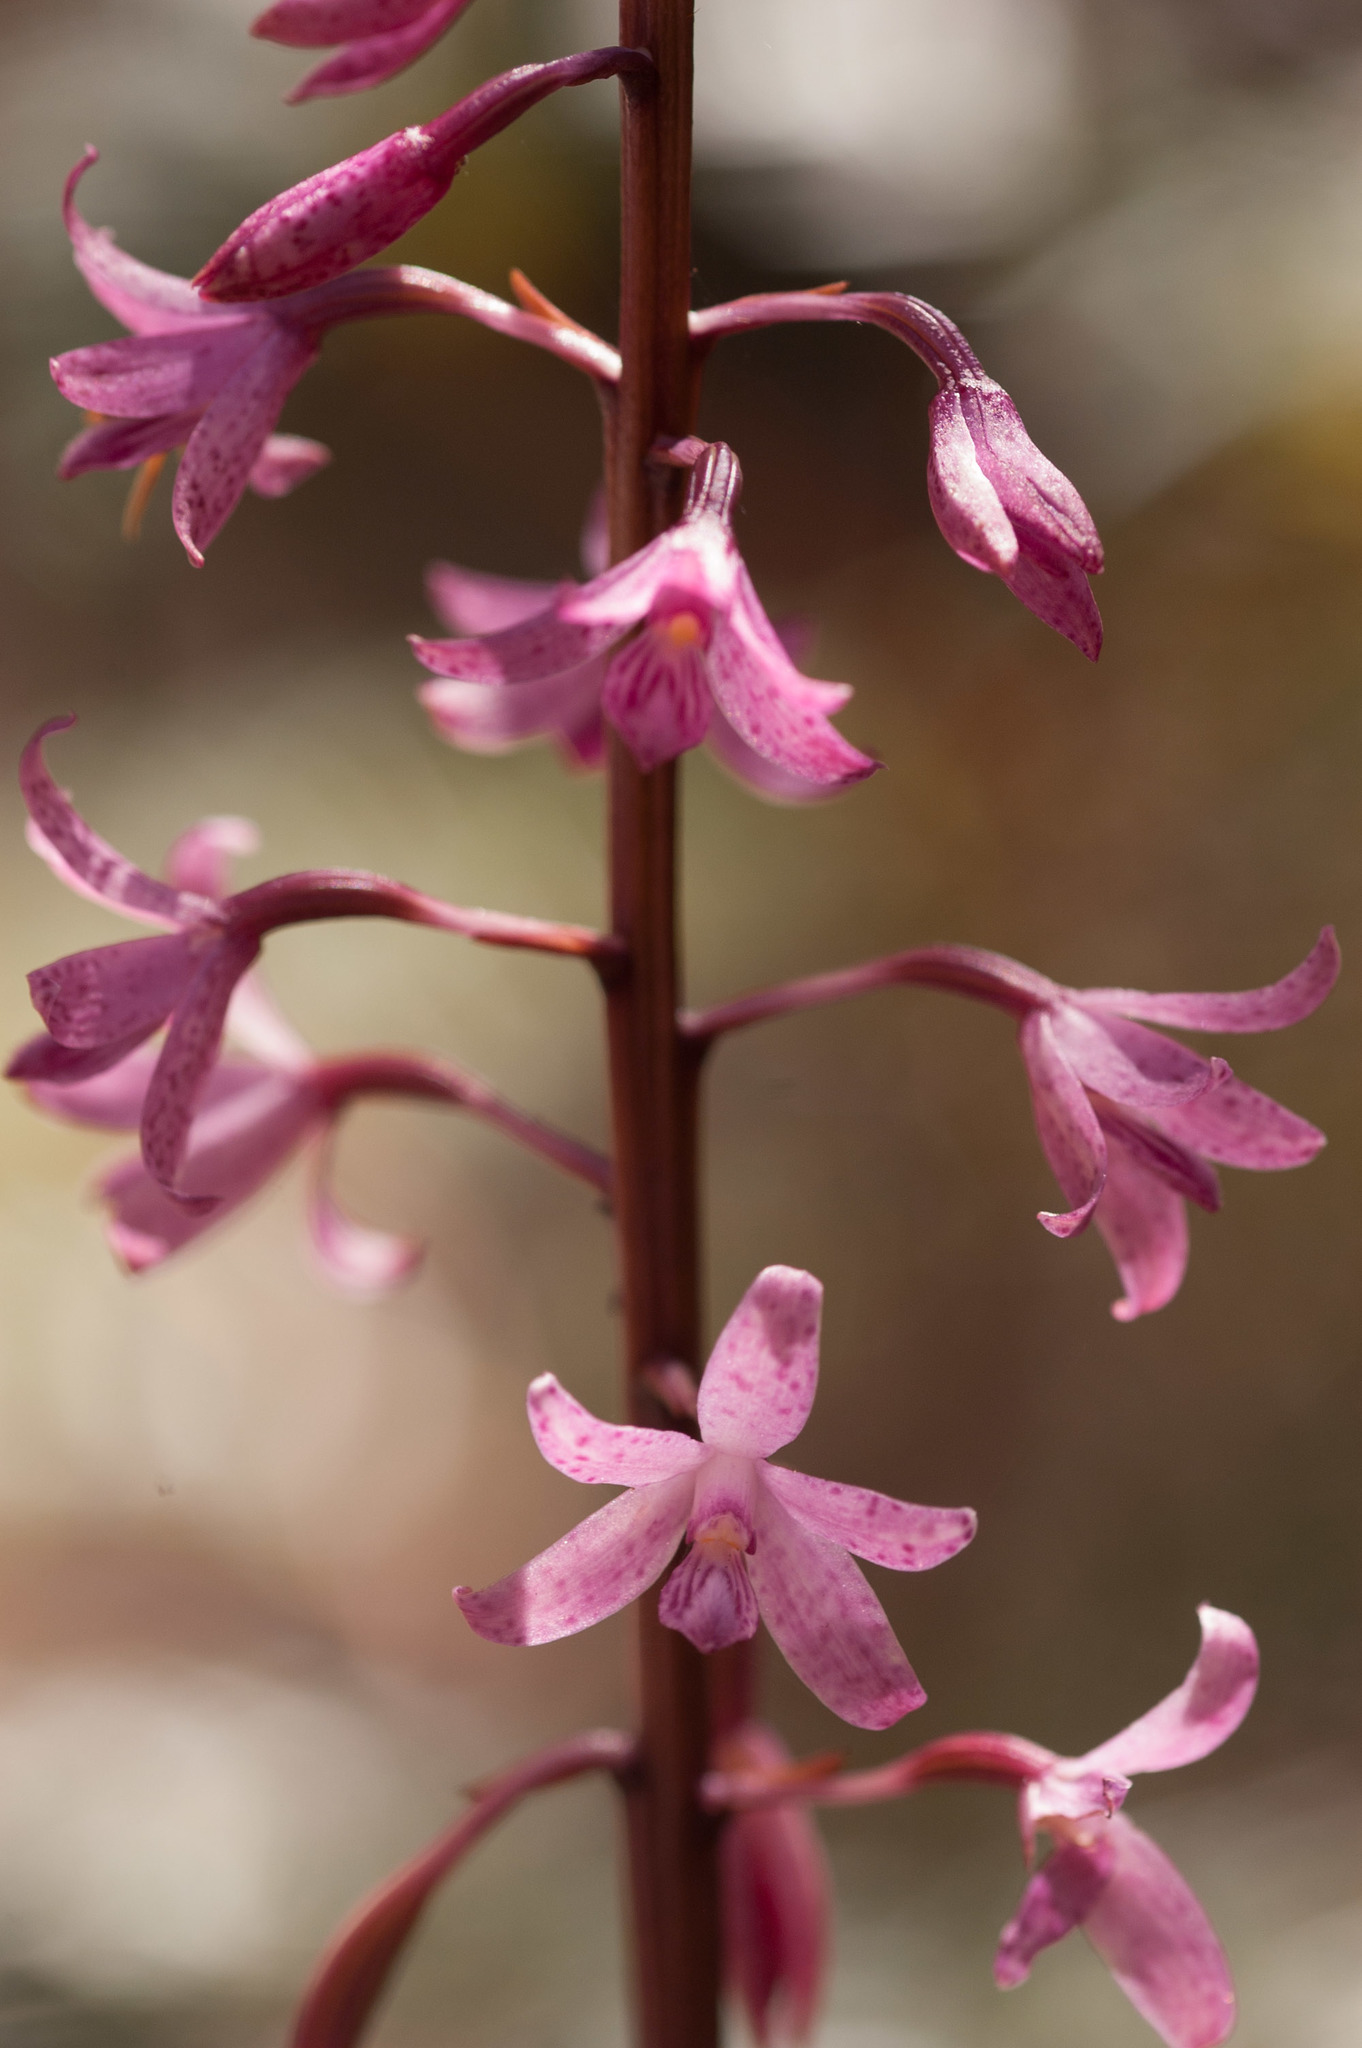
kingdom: Plantae
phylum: Tracheophyta
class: Liliopsida
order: Asparagales
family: Orchidaceae
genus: Dipodium
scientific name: Dipodium roseum
